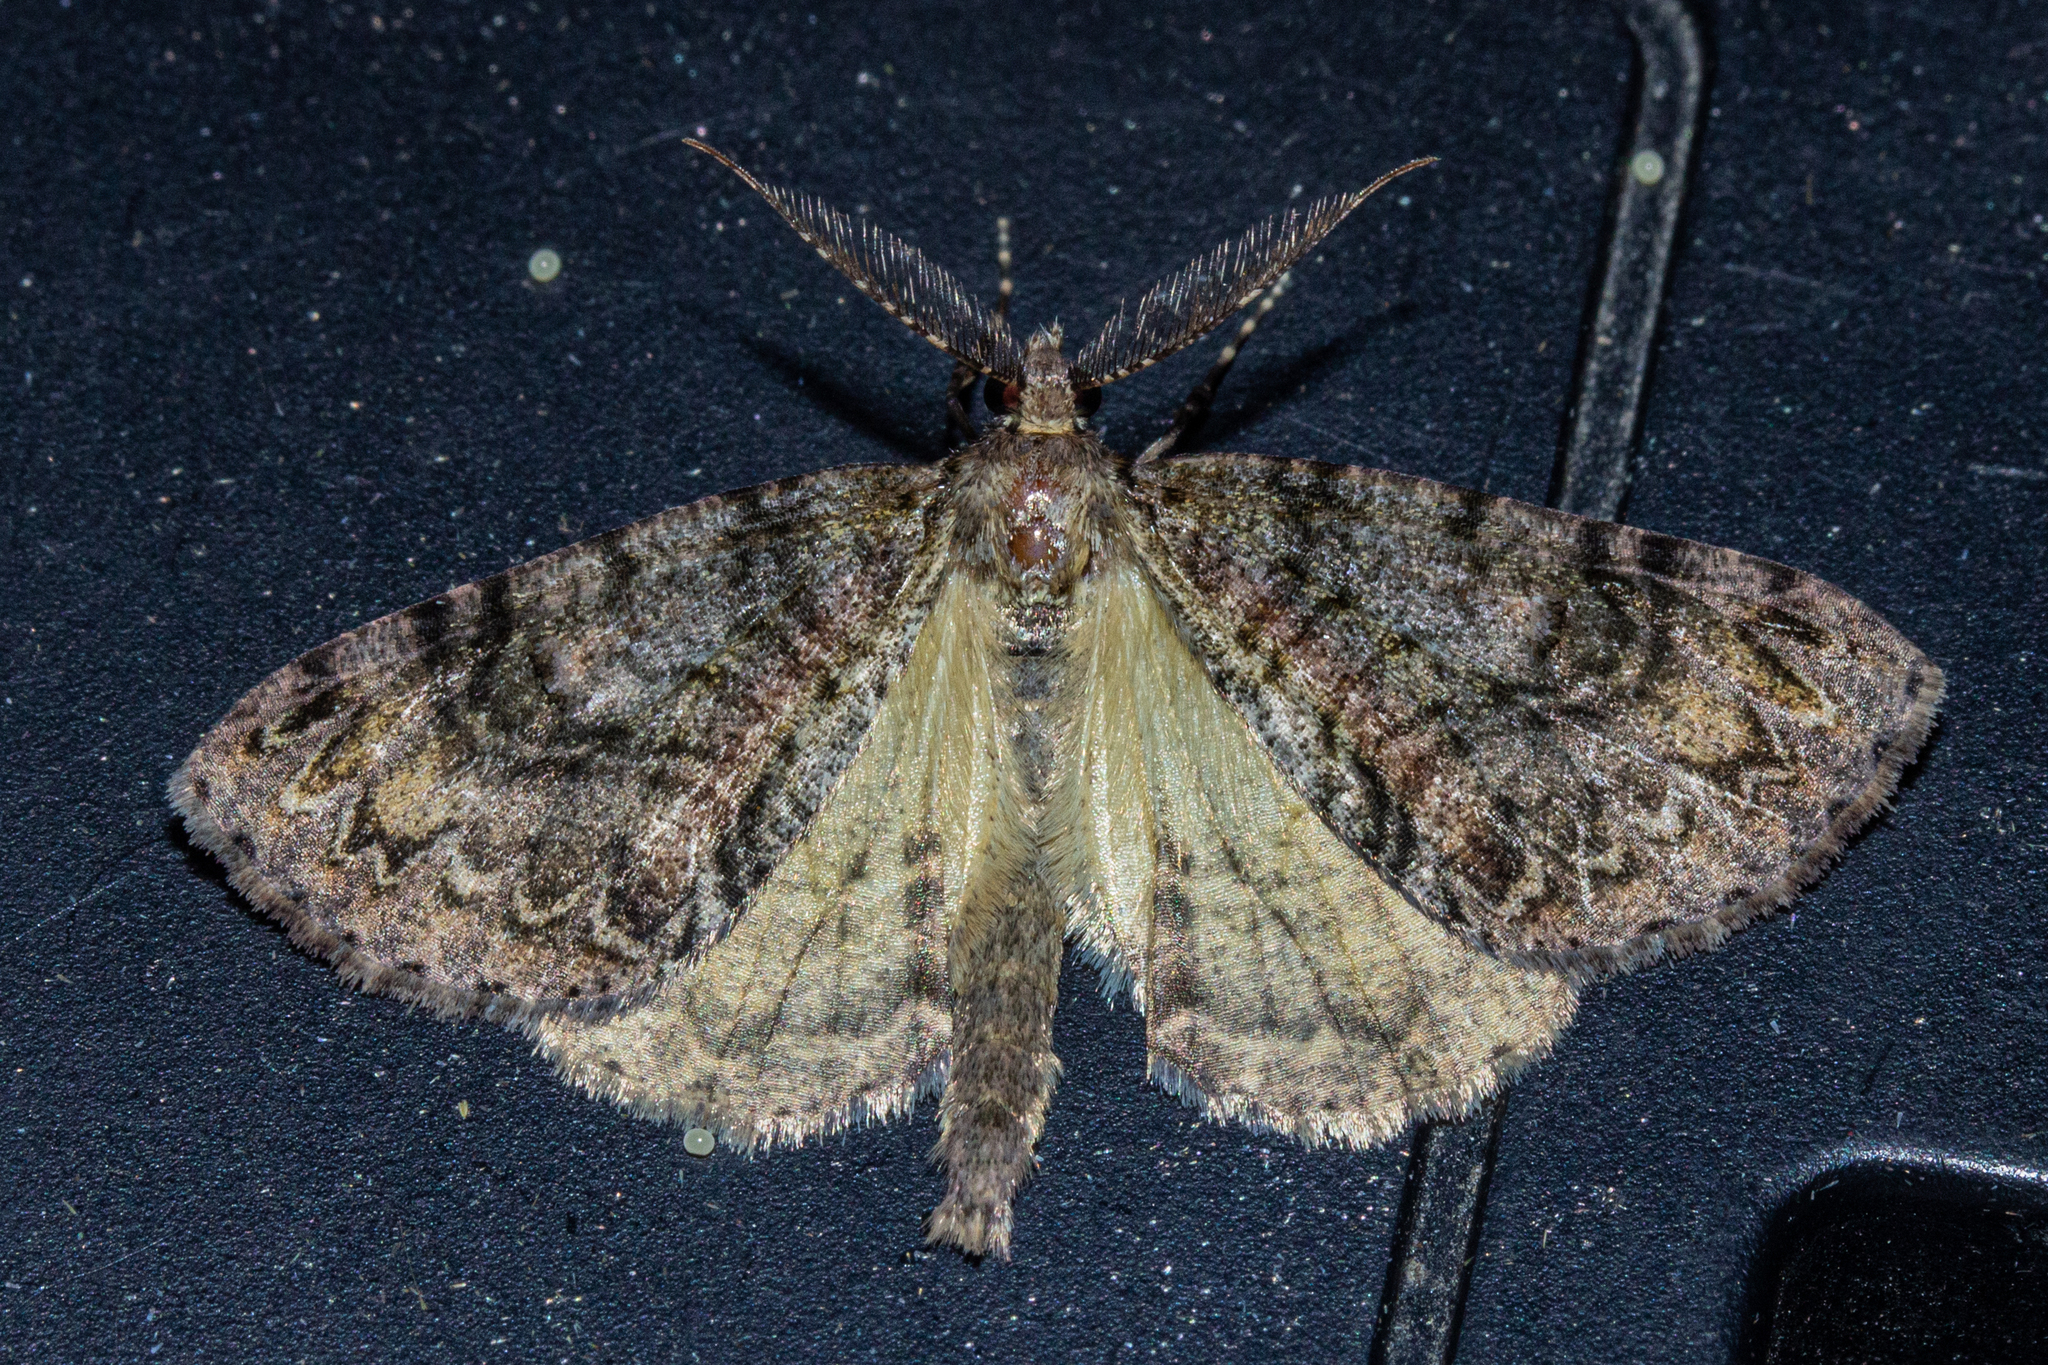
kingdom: Animalia
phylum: Arthropoda
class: Insecta
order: Lepidoptera
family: Geometridae
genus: Pseudocoremia
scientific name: Pseudocoremia suavis
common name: Common forest looper
